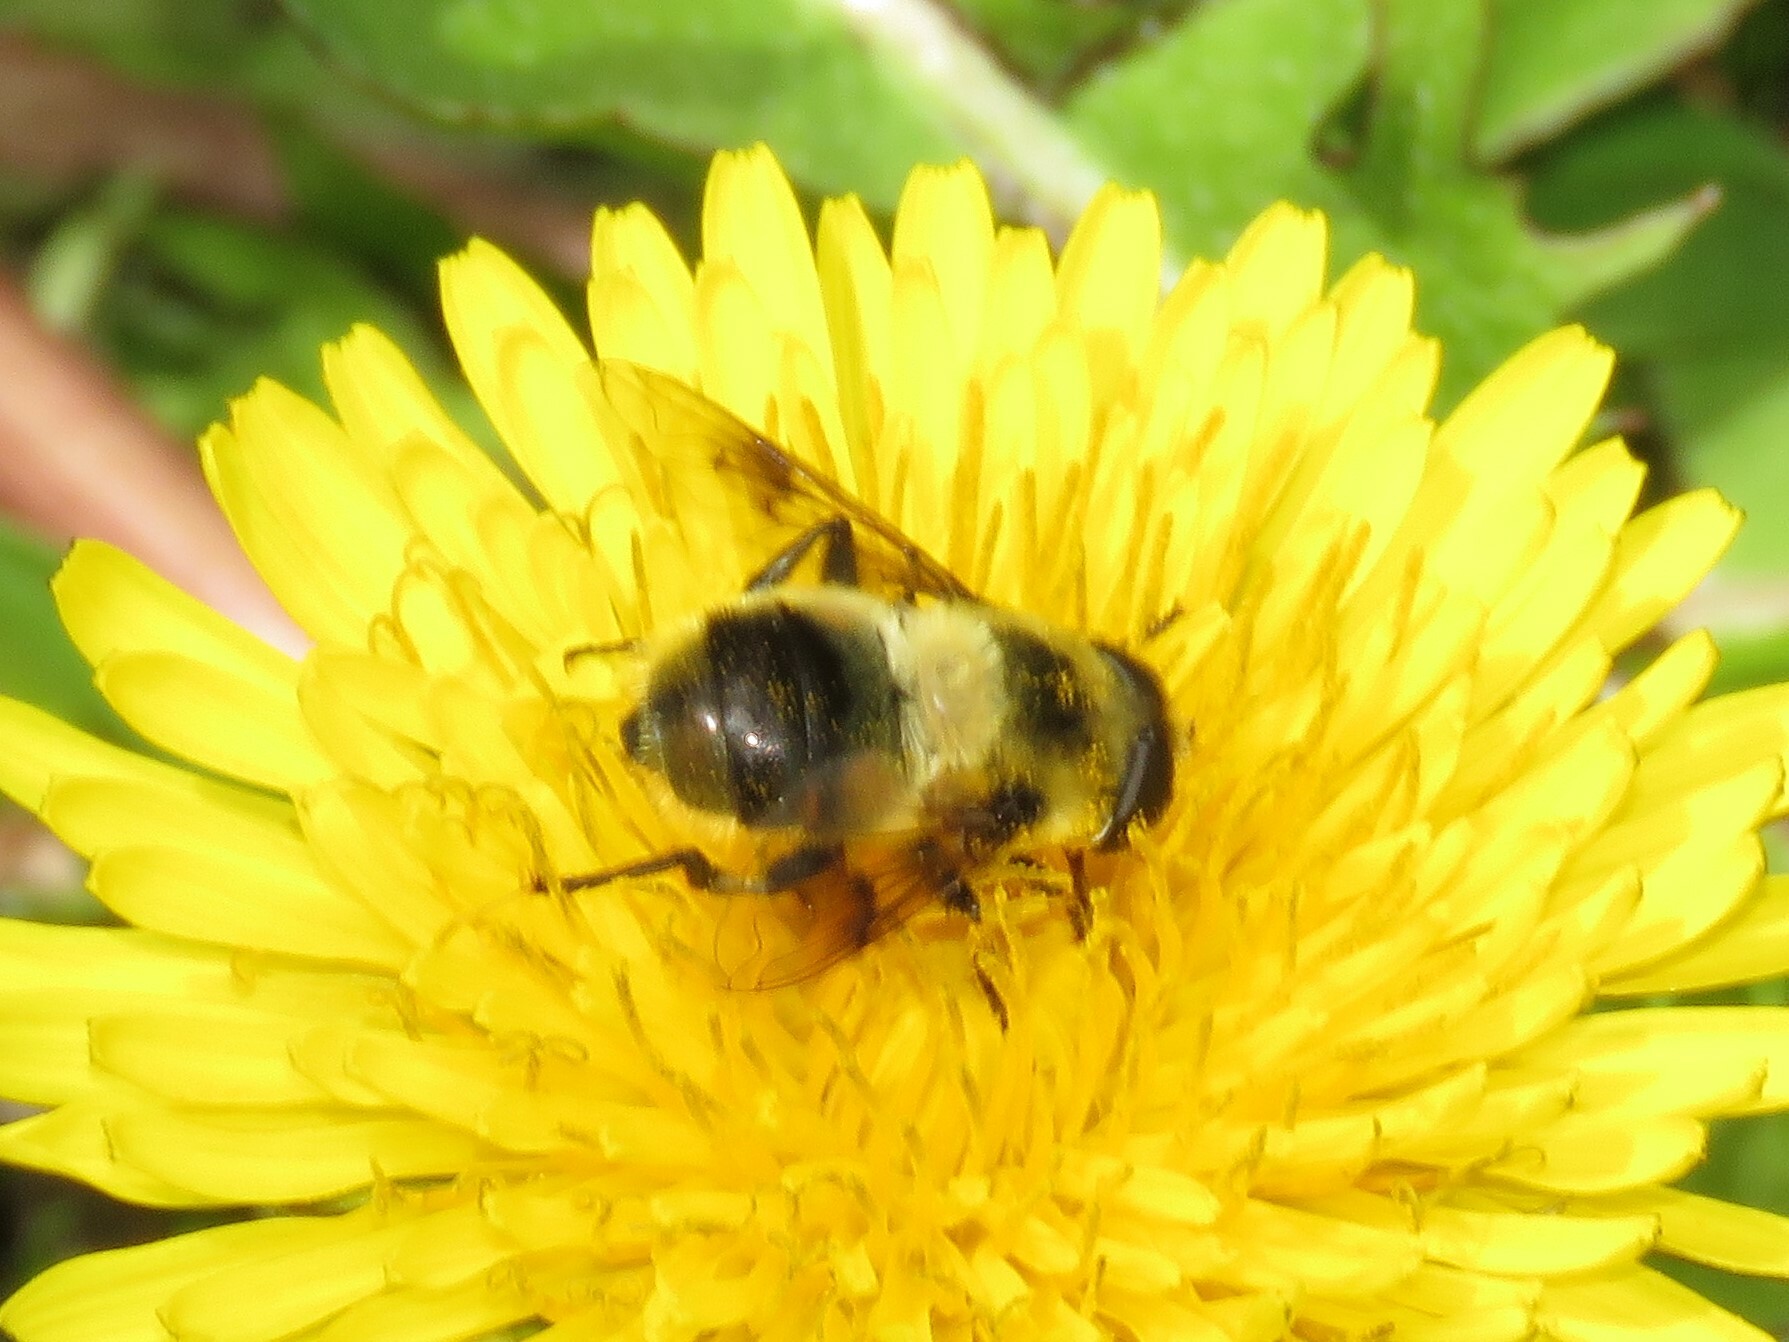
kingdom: Animalia
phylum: Arthropoda
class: Insecta
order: Diptera
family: Syrphidae
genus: Eristalis
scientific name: Eristalis anthophorina
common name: Orange-spotted drone fly
